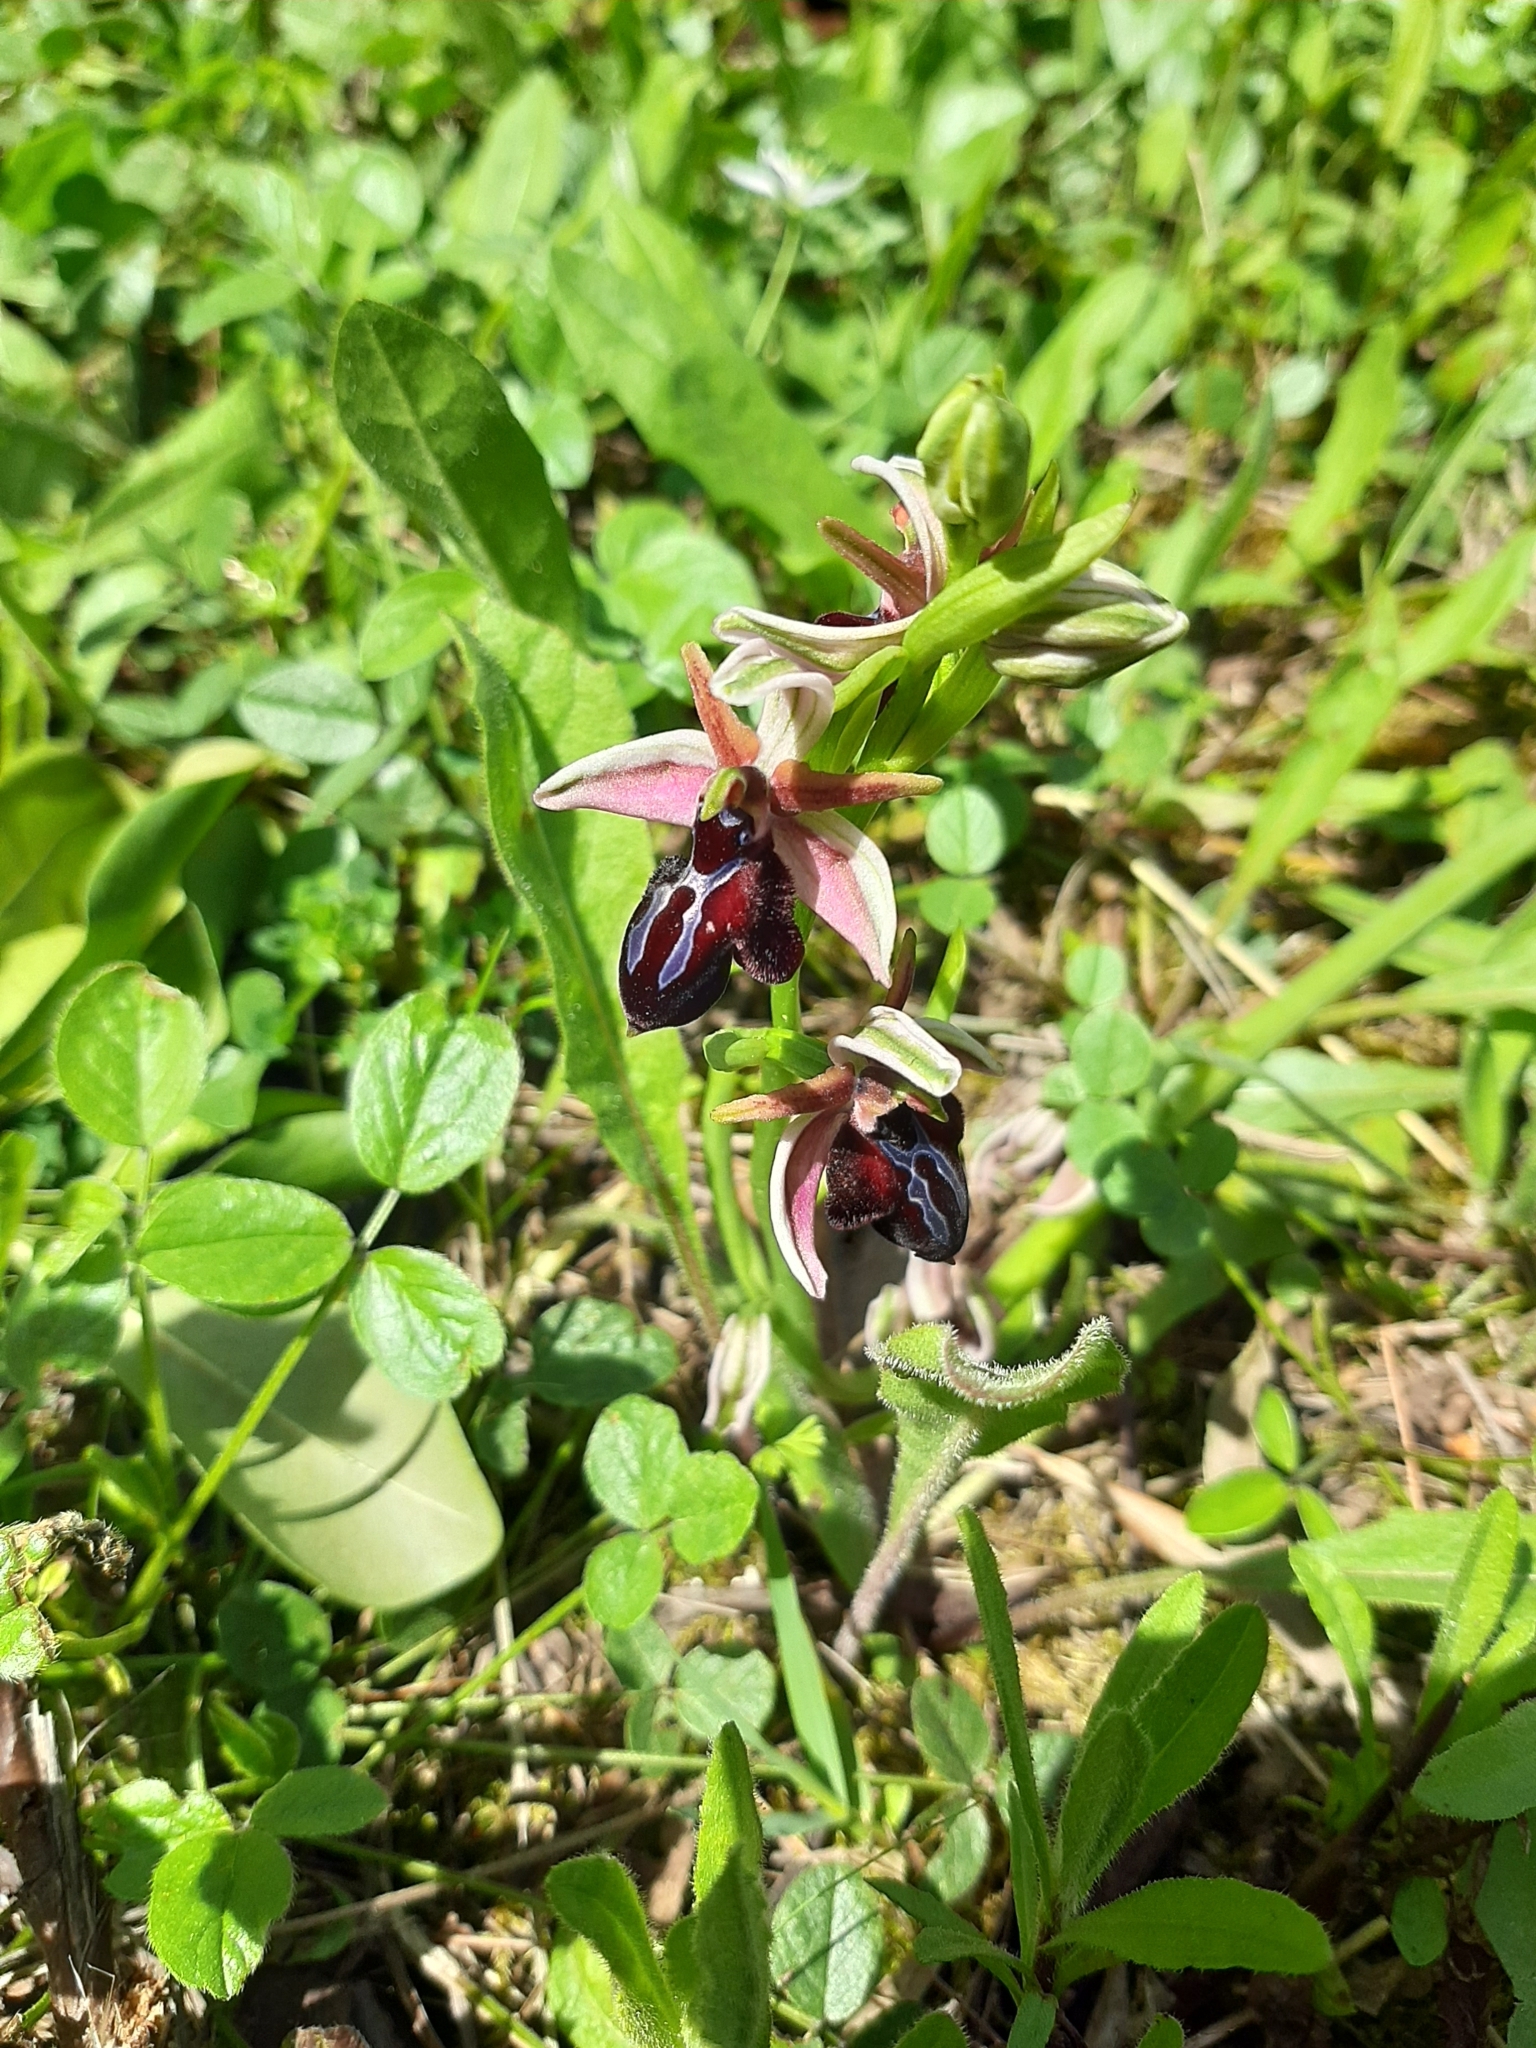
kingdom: Plantae
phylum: Tracheophyta
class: Liliopsida
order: Asparagales
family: Orchidaceae
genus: Ophrys
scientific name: Ophrys sphegodes
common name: Early spider-orchid
